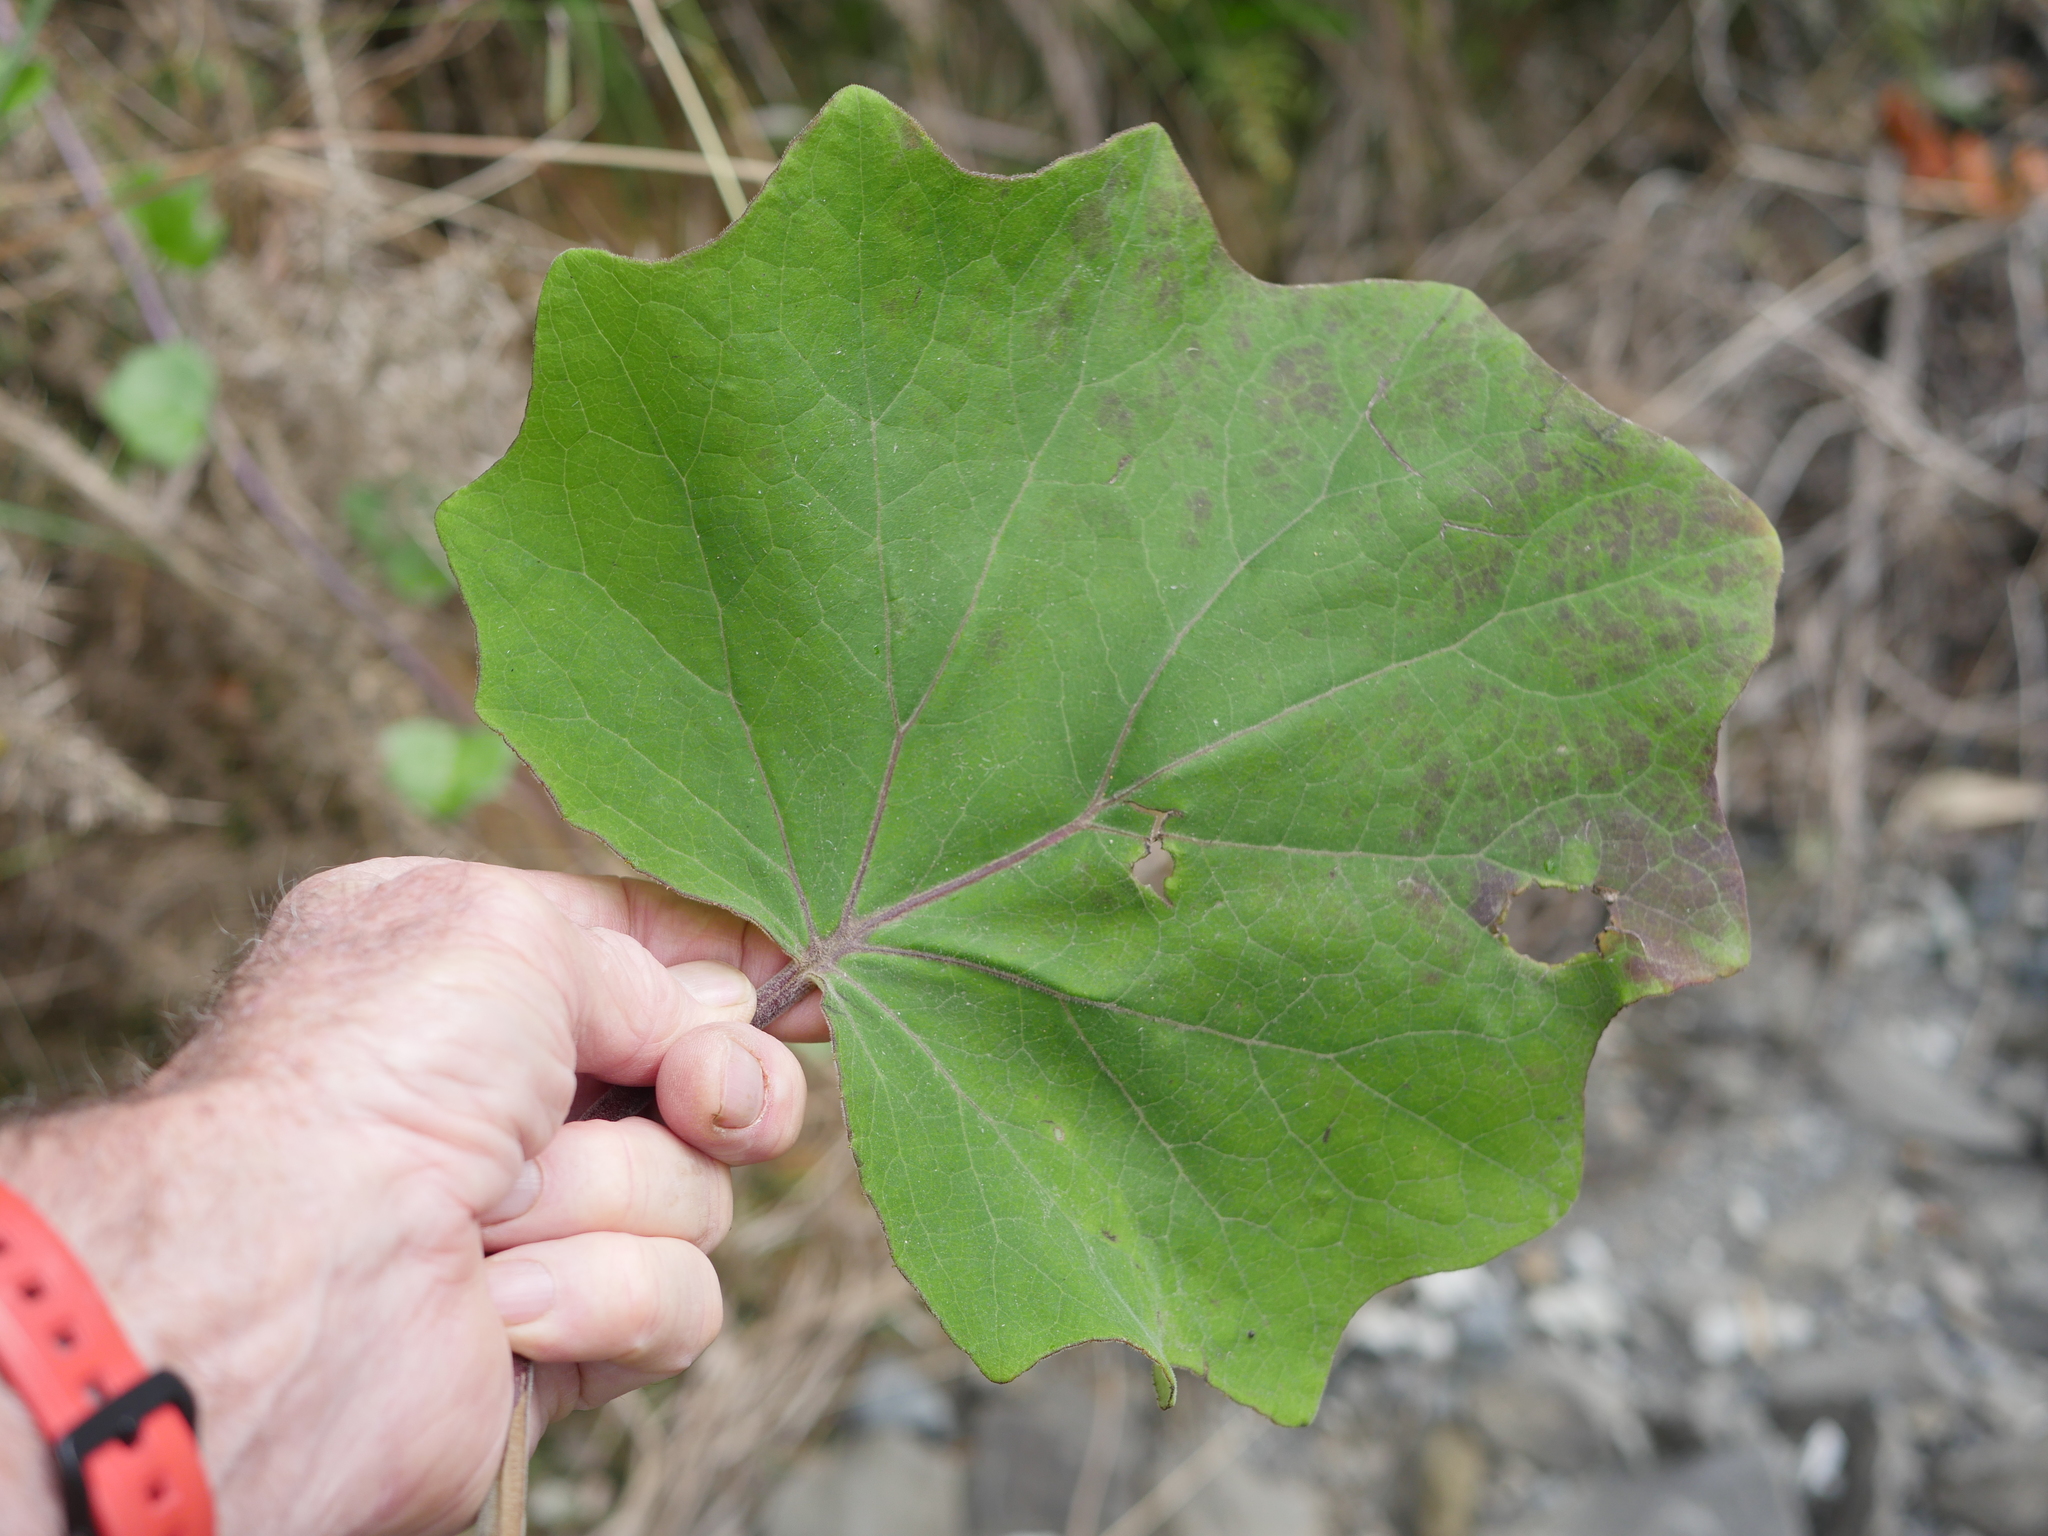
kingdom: Plantae
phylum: Tracheophyta
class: Magnoliopsida
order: Asterales
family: Asteraceae
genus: Roldana
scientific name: Roldana petasitis
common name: California-geranium
